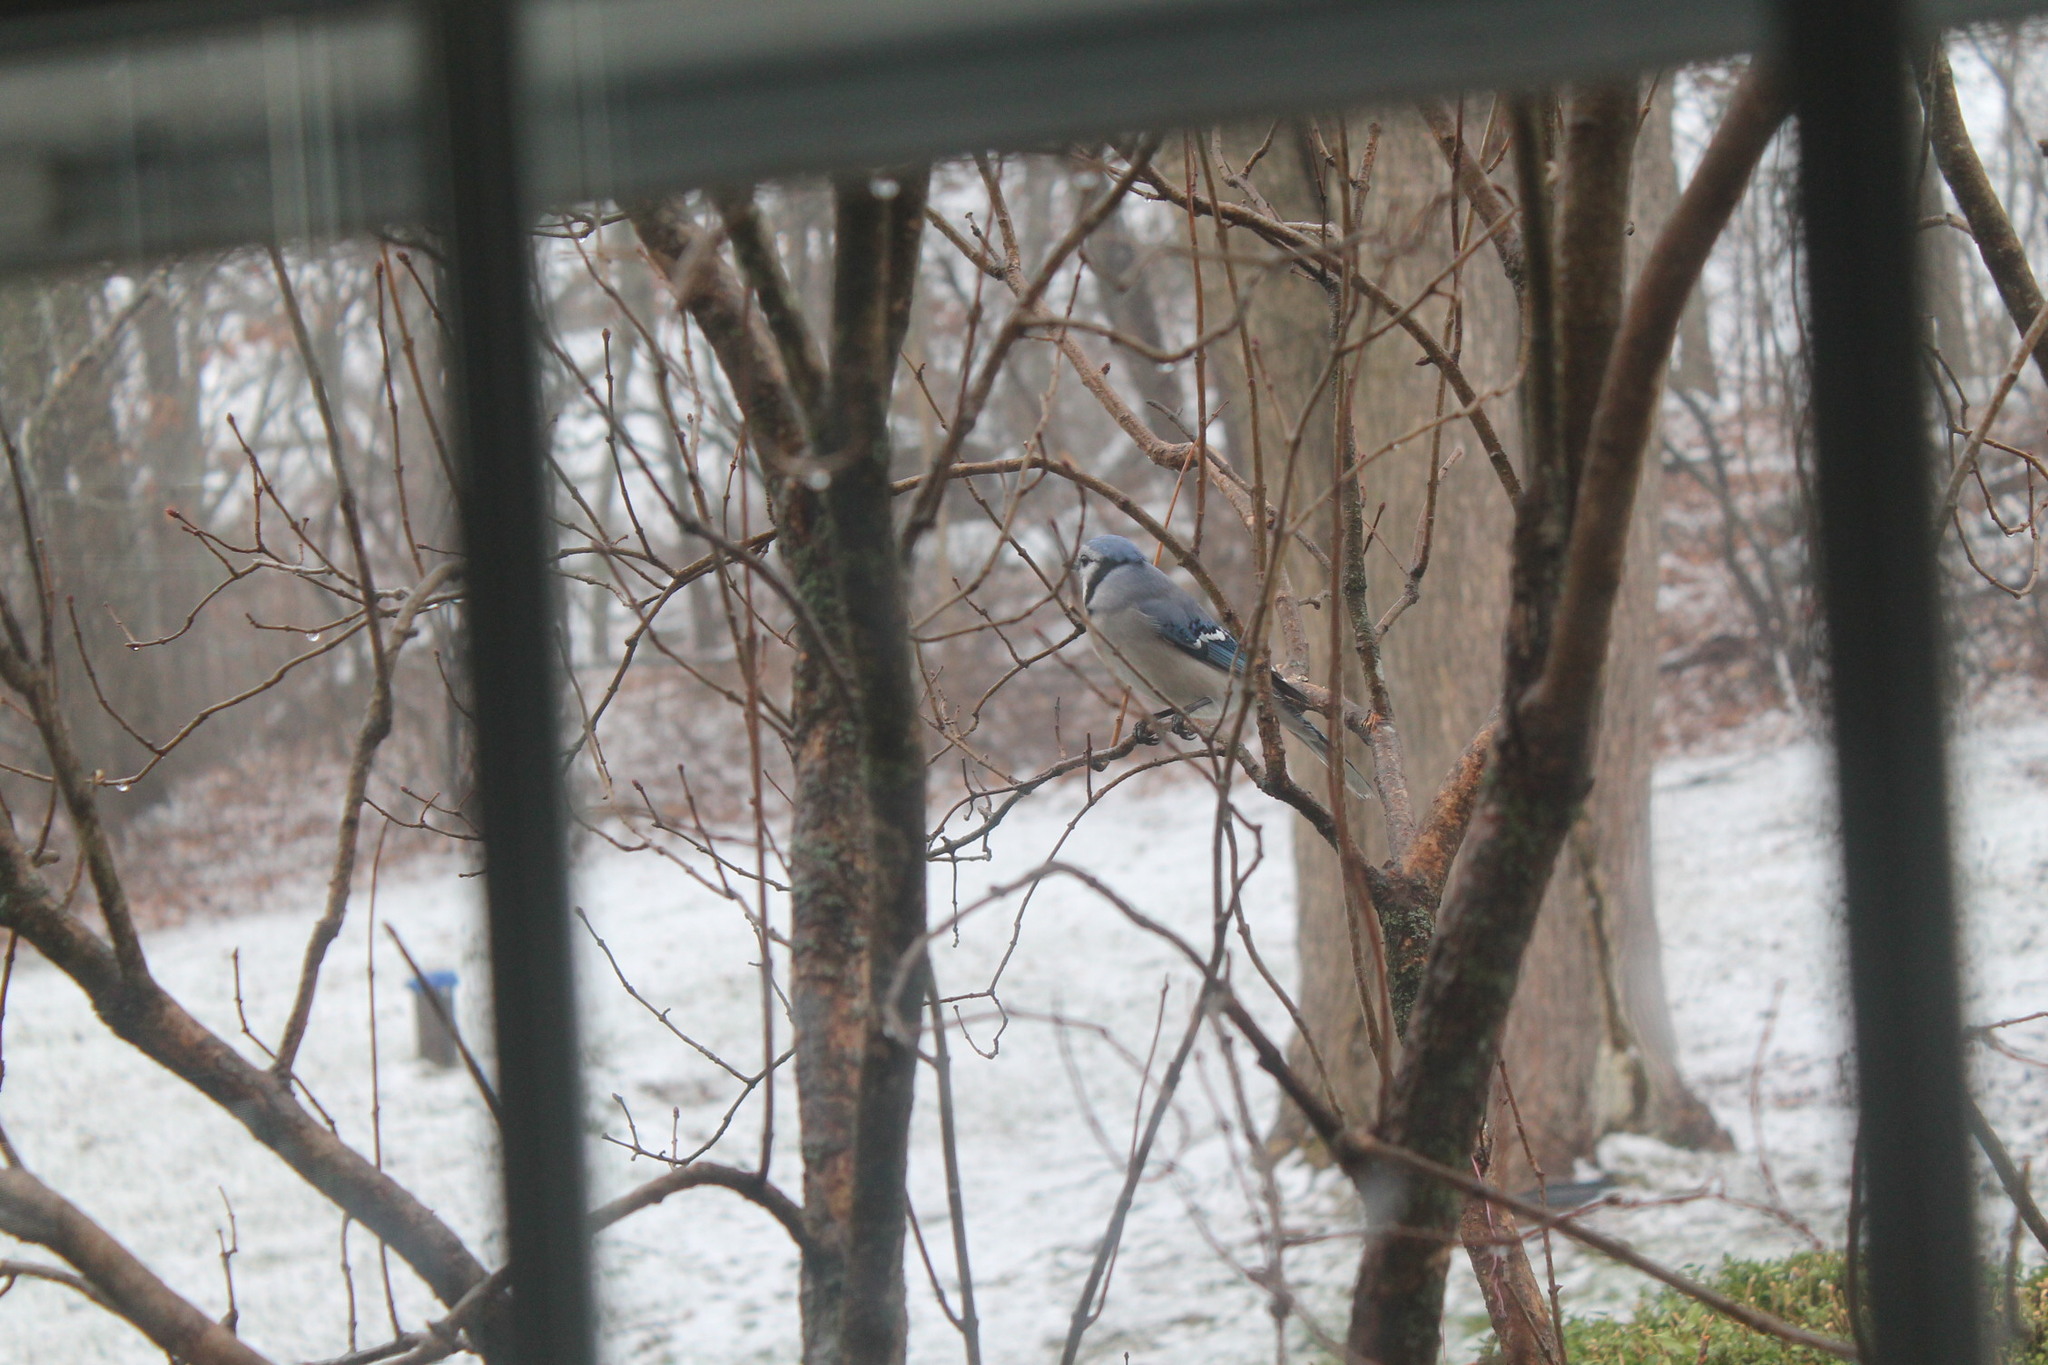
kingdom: Animalia
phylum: Chordata
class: Aves
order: Passeriformes
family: Corvidae
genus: Cyanocitta
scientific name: Cyanocitta cristata
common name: Blue jay
